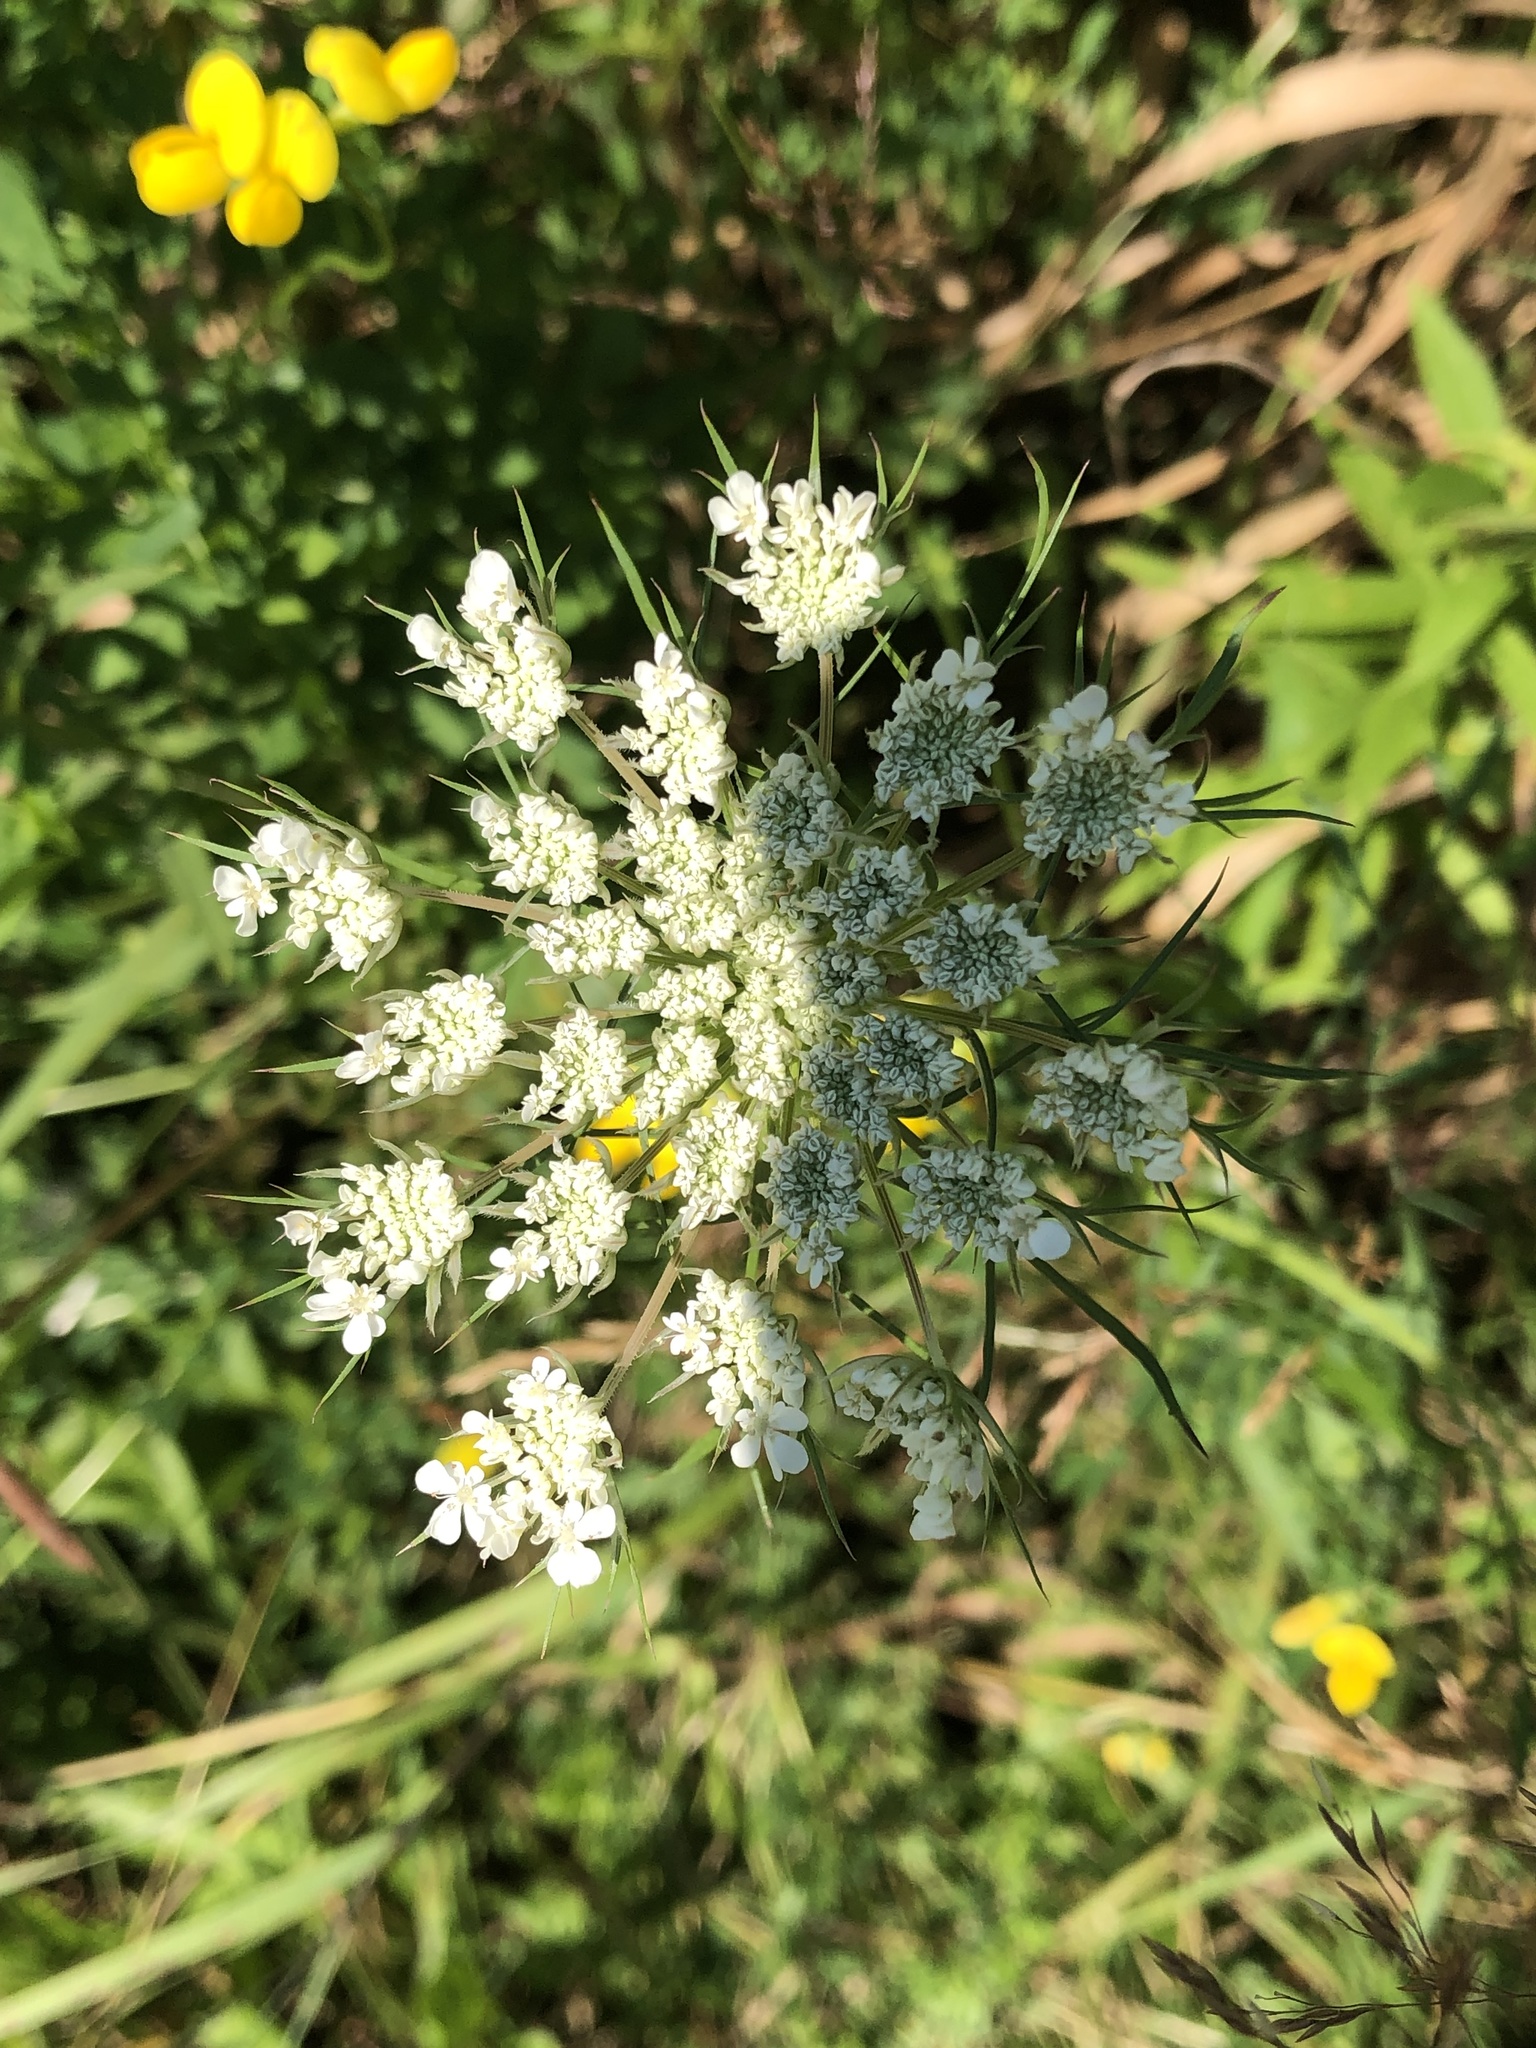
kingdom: Plantae
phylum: Tracheophyta
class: Magnoliopsida
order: Apiales
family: Apiaceae
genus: Daucus
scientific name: Daucus carota
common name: Wild carrot
